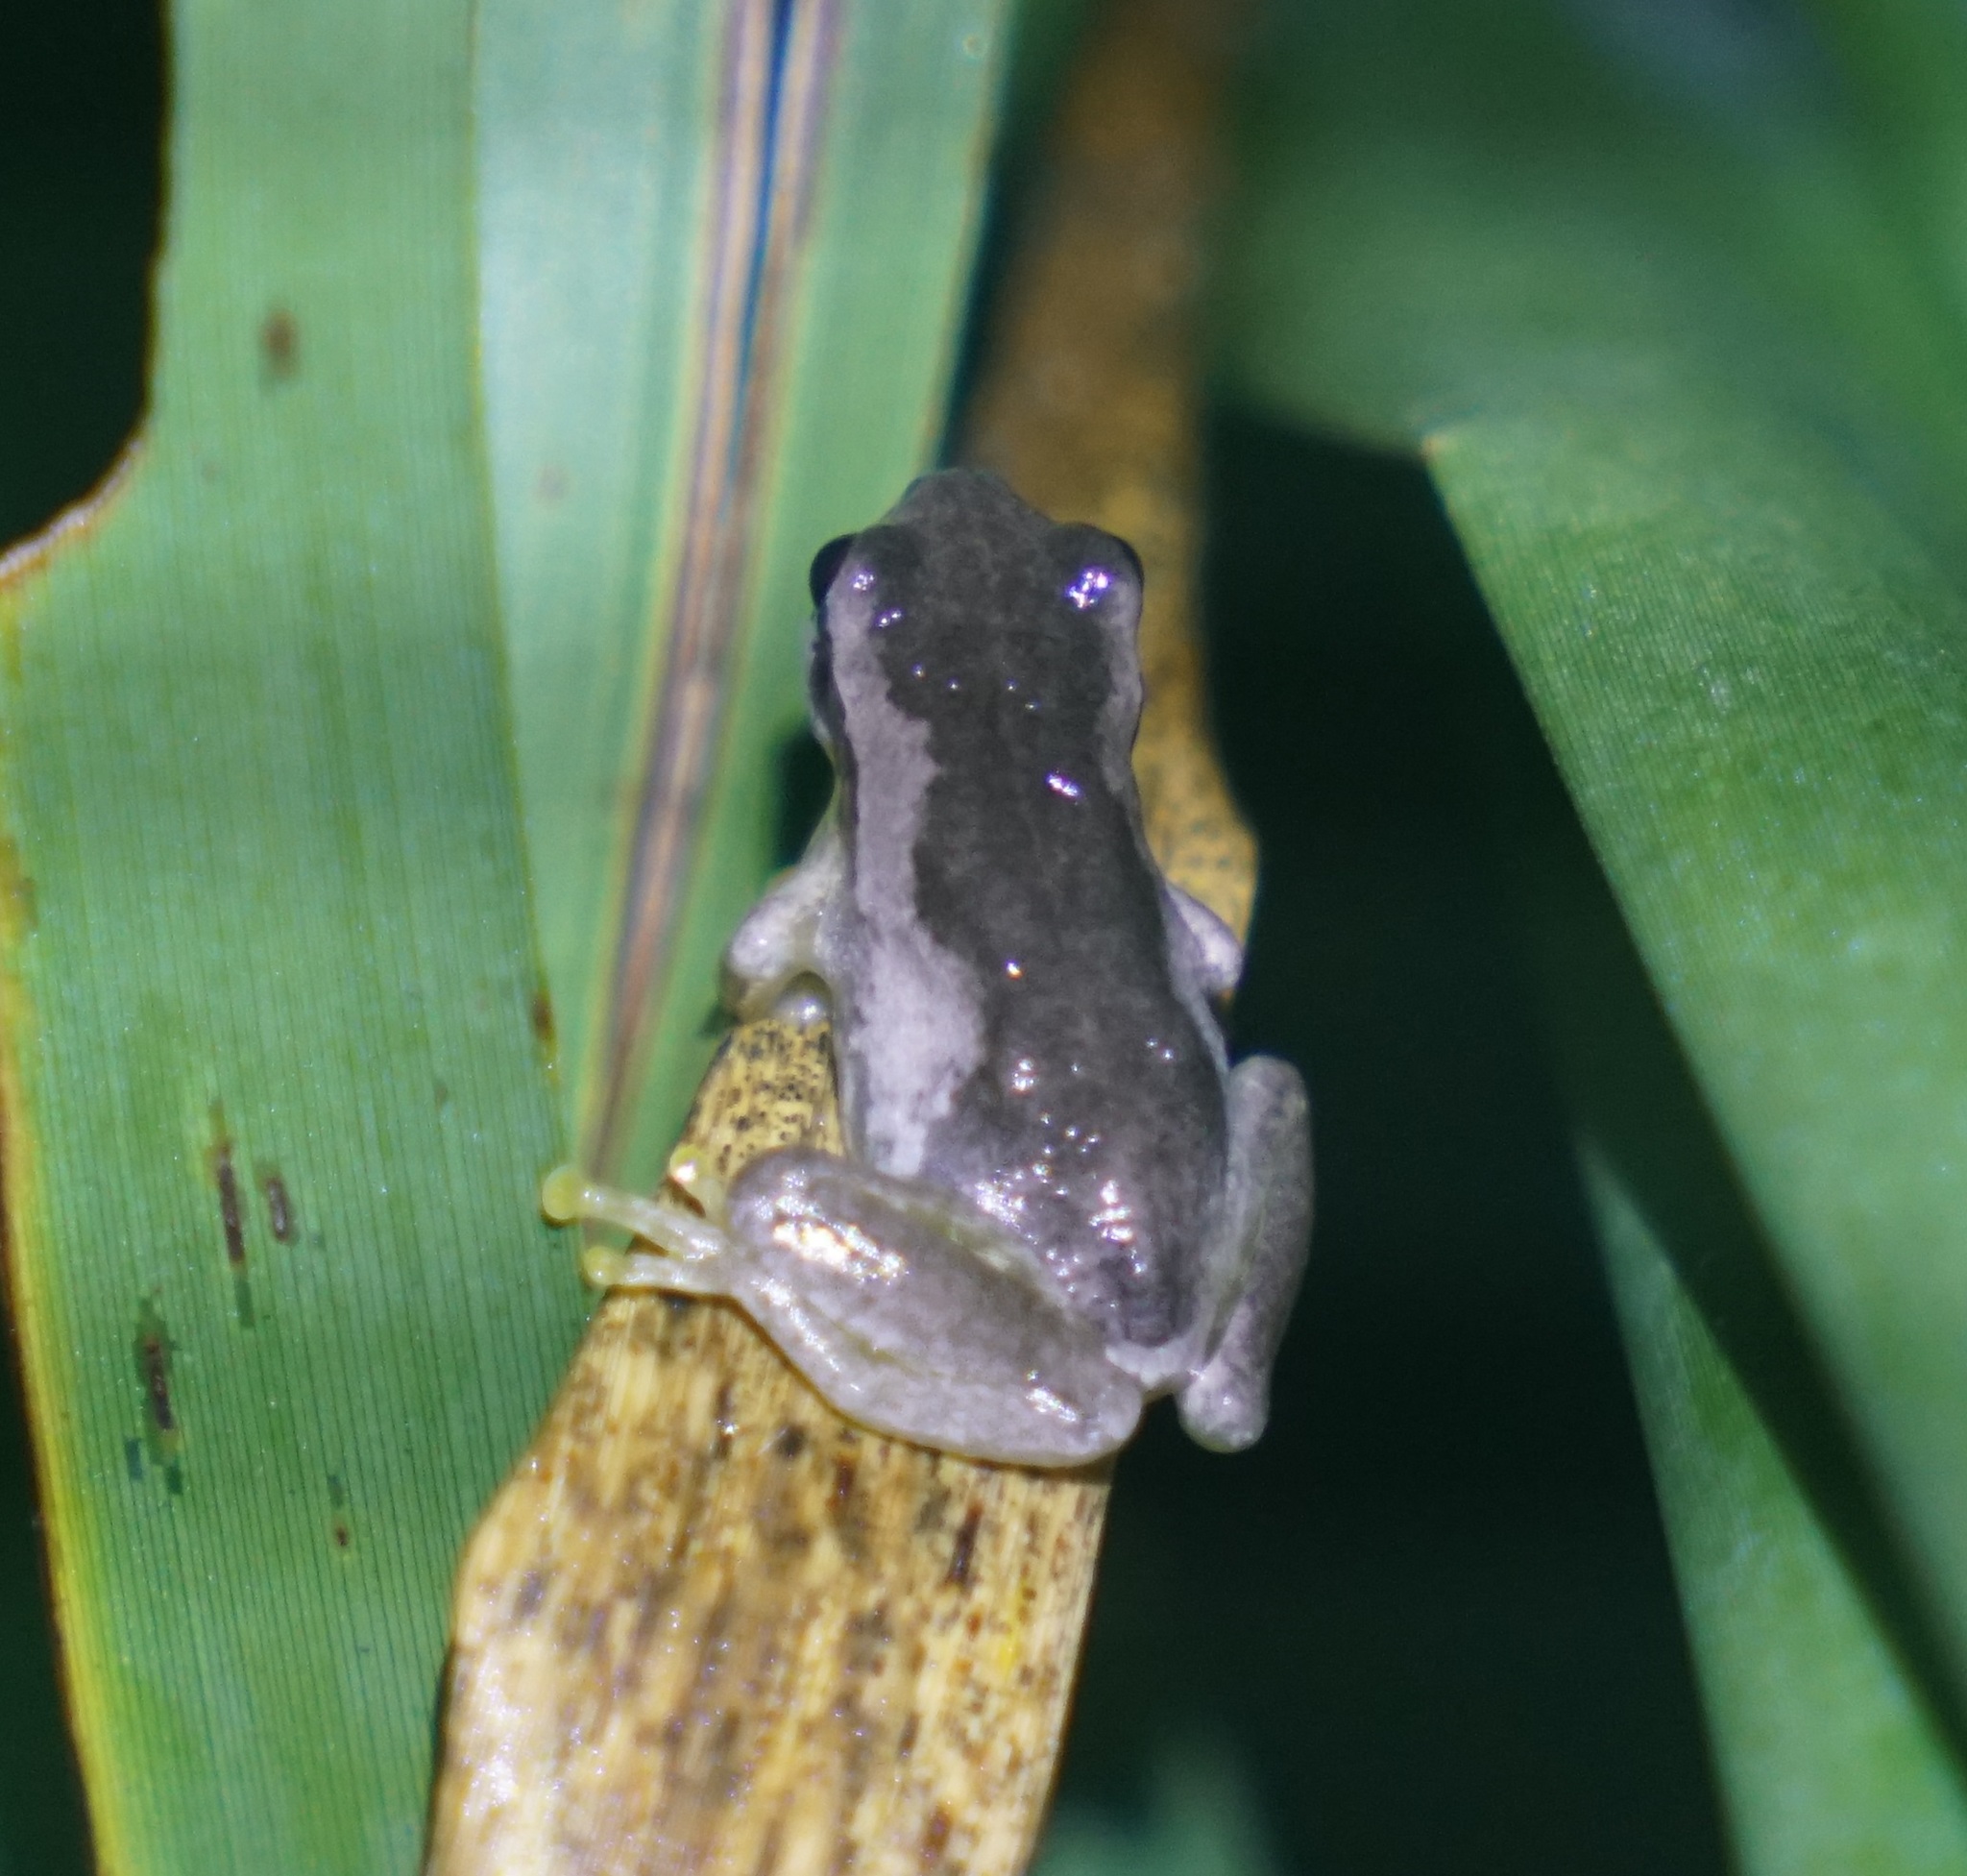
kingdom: Animalia
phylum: Chordata
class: Amphibia
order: Anura
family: Pelodryadidae
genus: Litoria
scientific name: Litoria quiritatus
